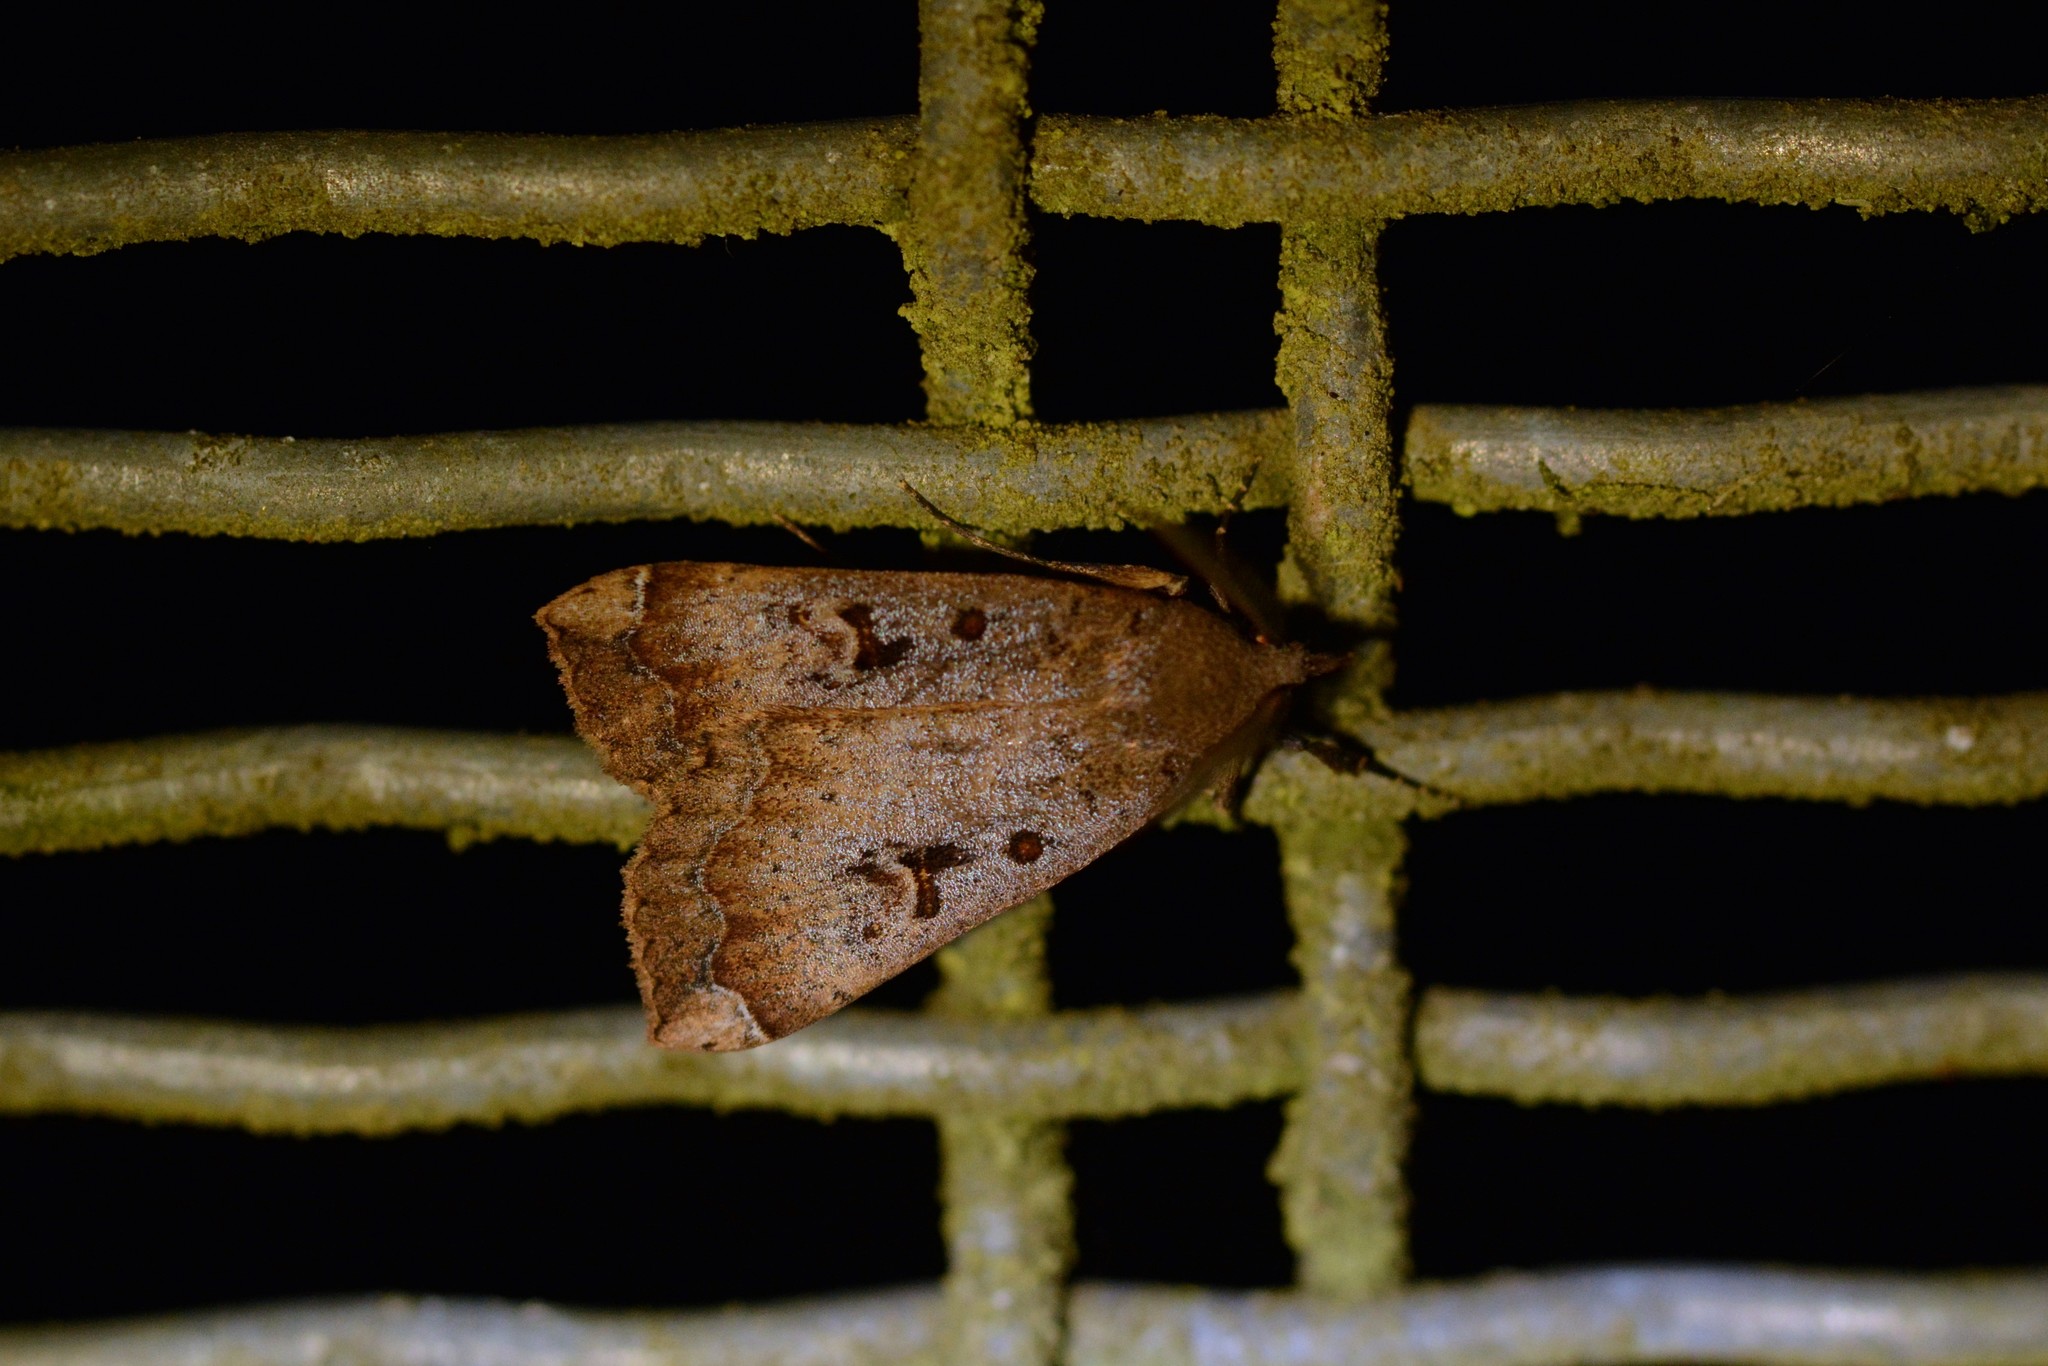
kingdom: Animalia
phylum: Arthropoda
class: Insecta
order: Lepidoptera
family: Erebidae
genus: Rhapsa
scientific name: Rhapsa scotosialis
